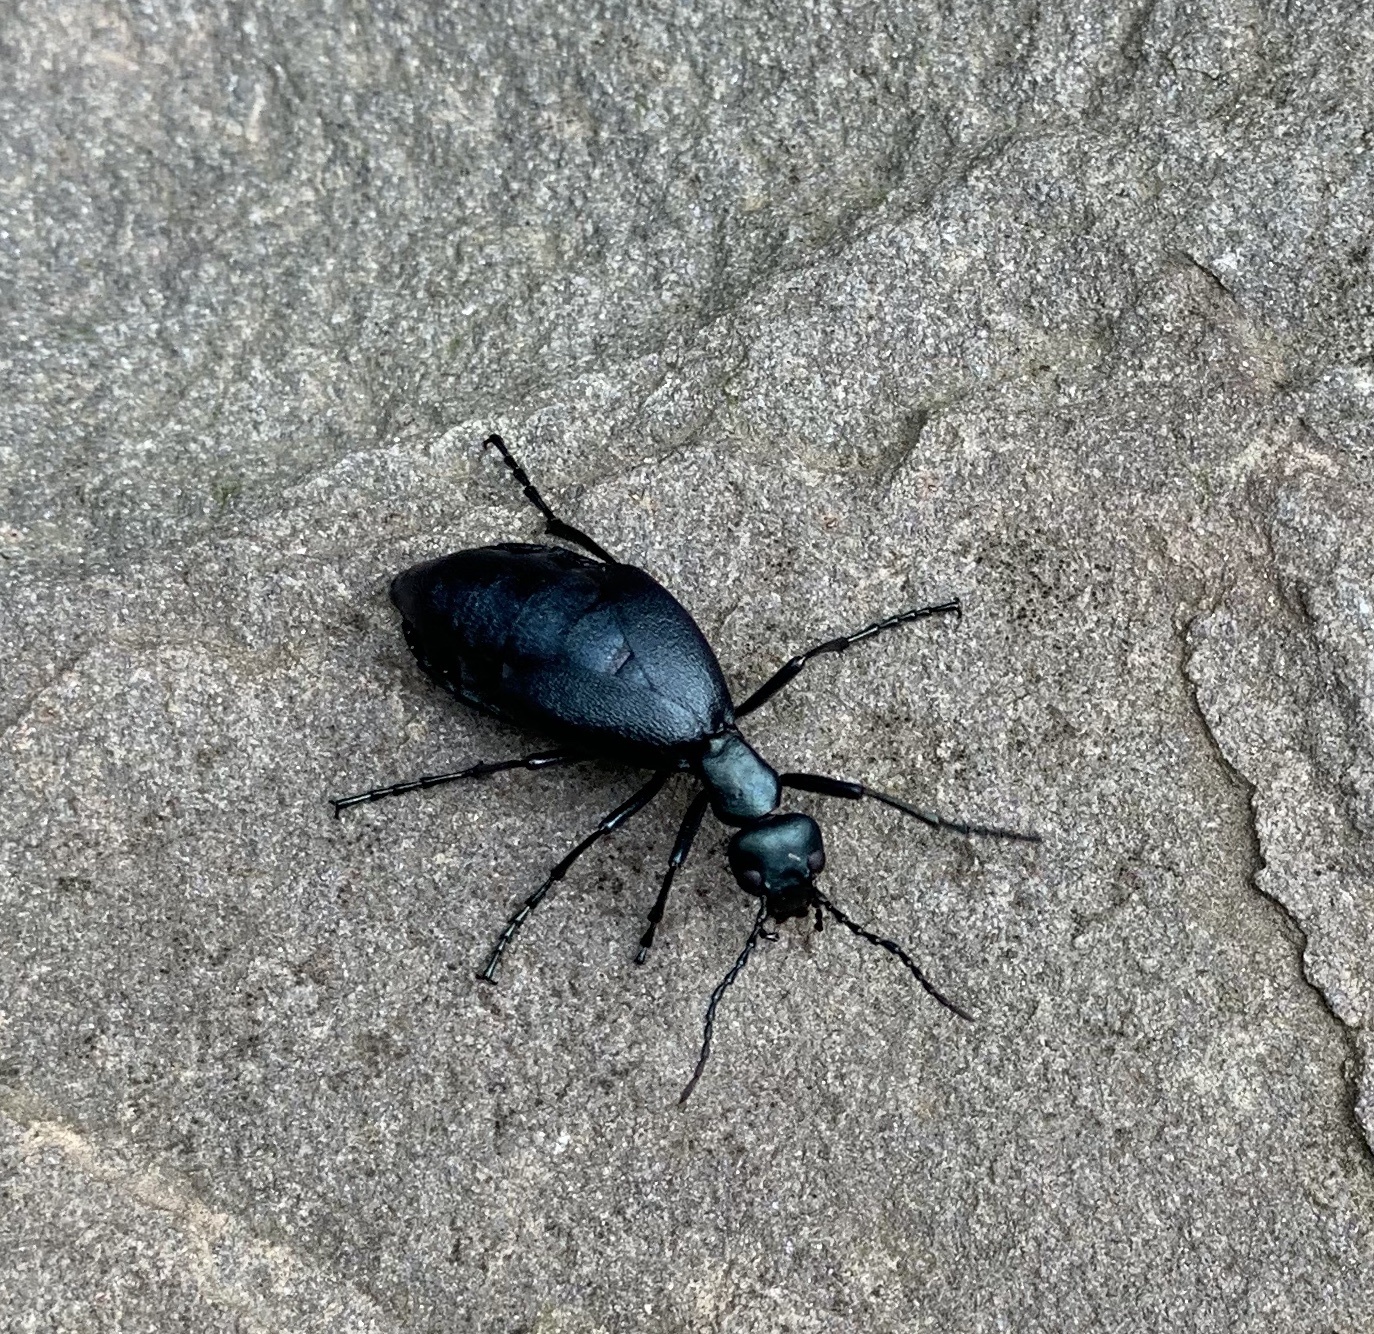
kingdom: Animalia
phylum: Arthropoda
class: Insecta
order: Coleoptera
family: Meloidae
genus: Meloe
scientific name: Meloe impressus
